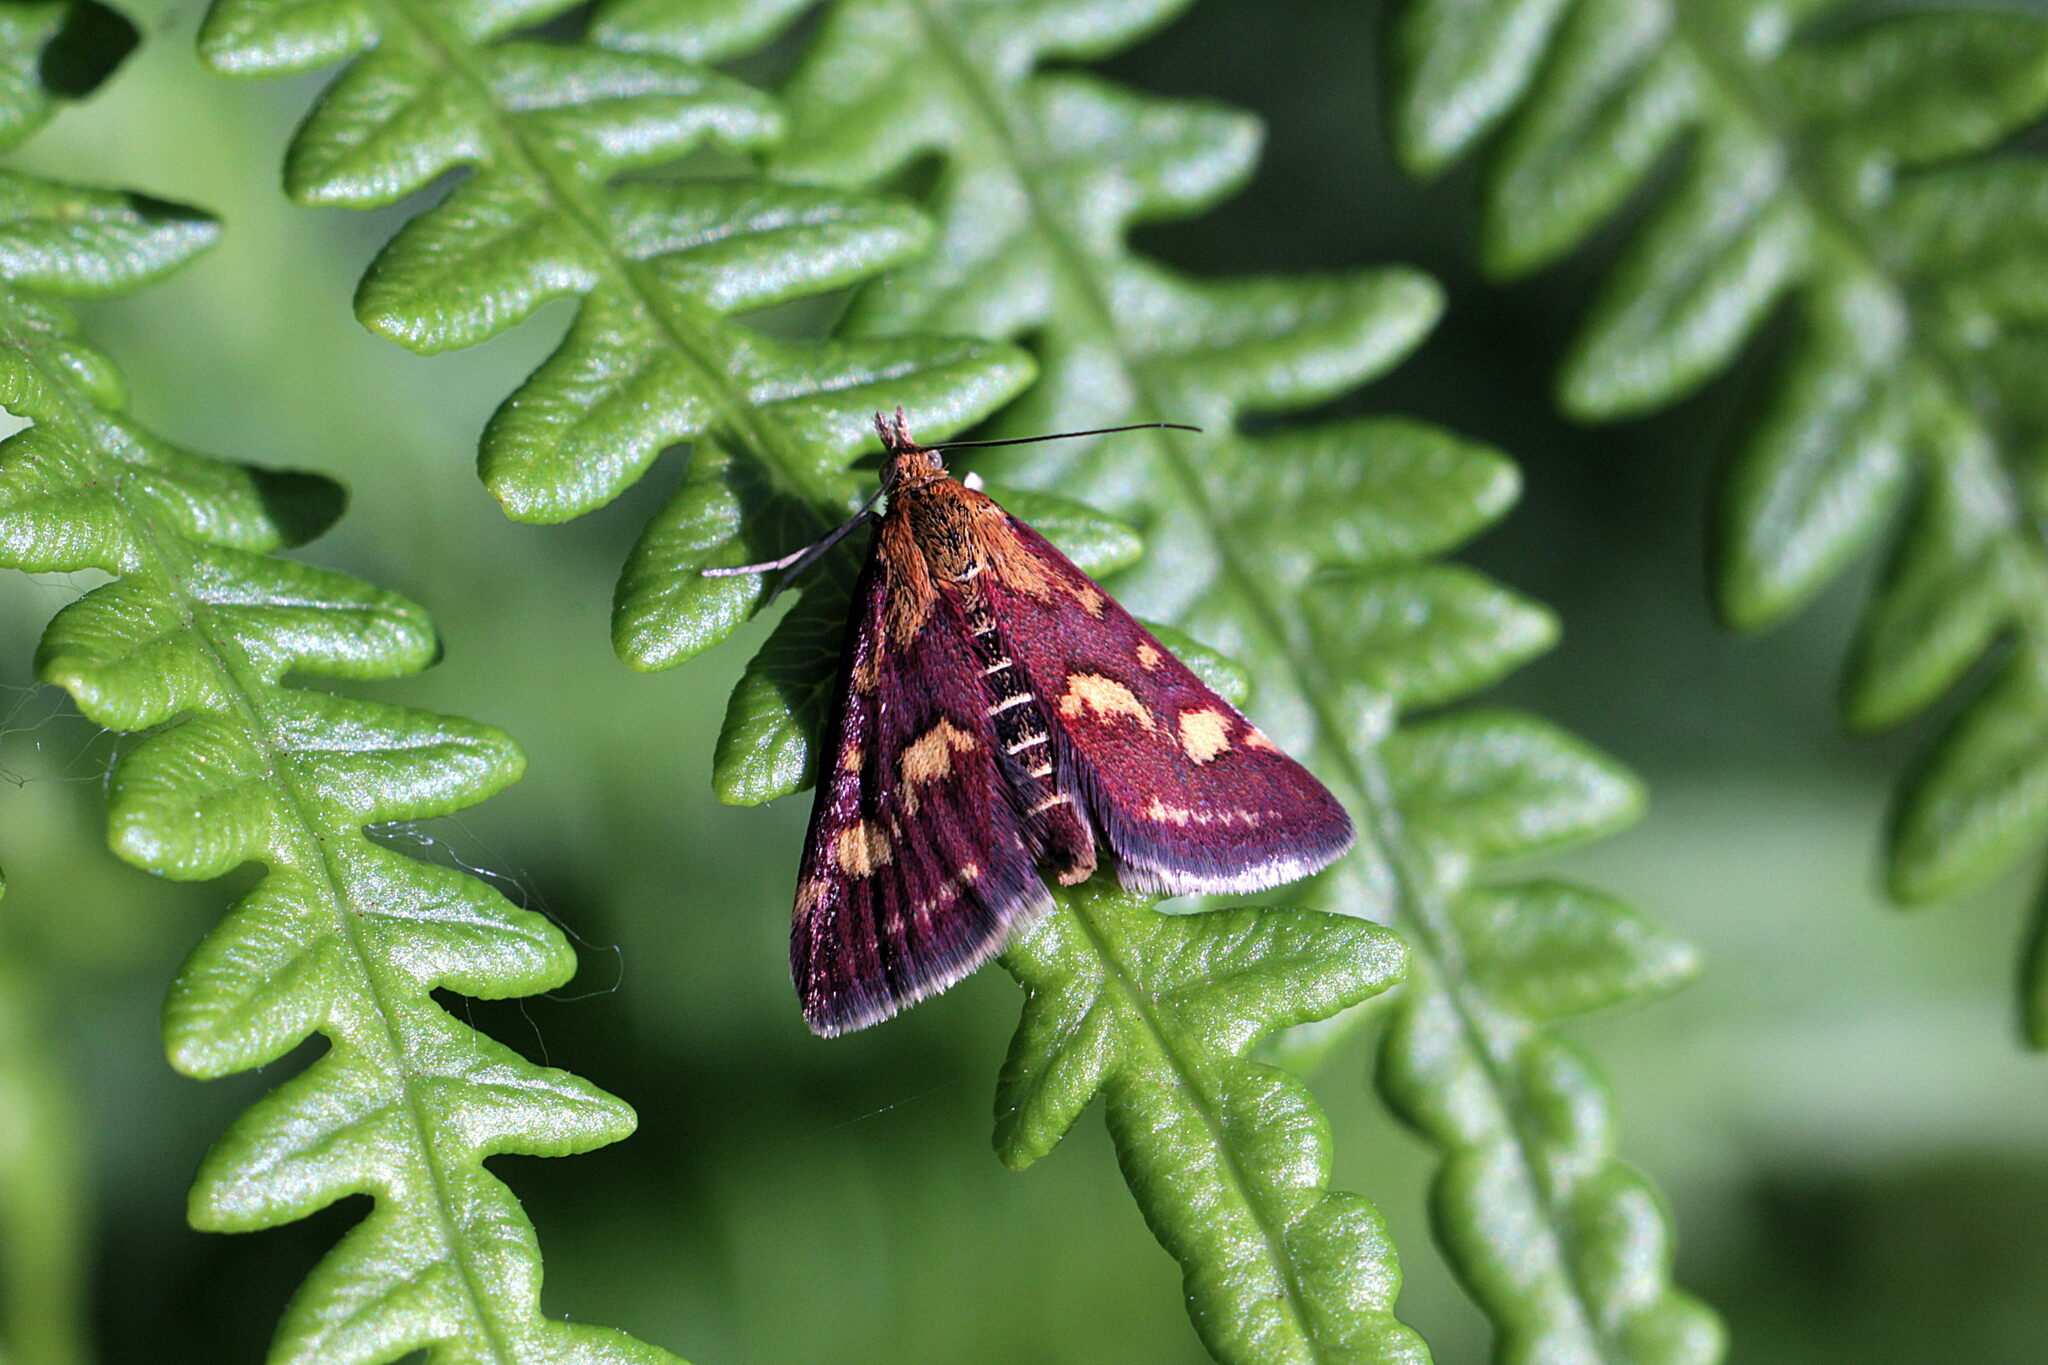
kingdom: Animalia
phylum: Arthropoda
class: Insecta
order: Lepidoptera
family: Crambidae
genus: Pyrausta
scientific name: Pyrausta purpuralis
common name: Common purple & gold
